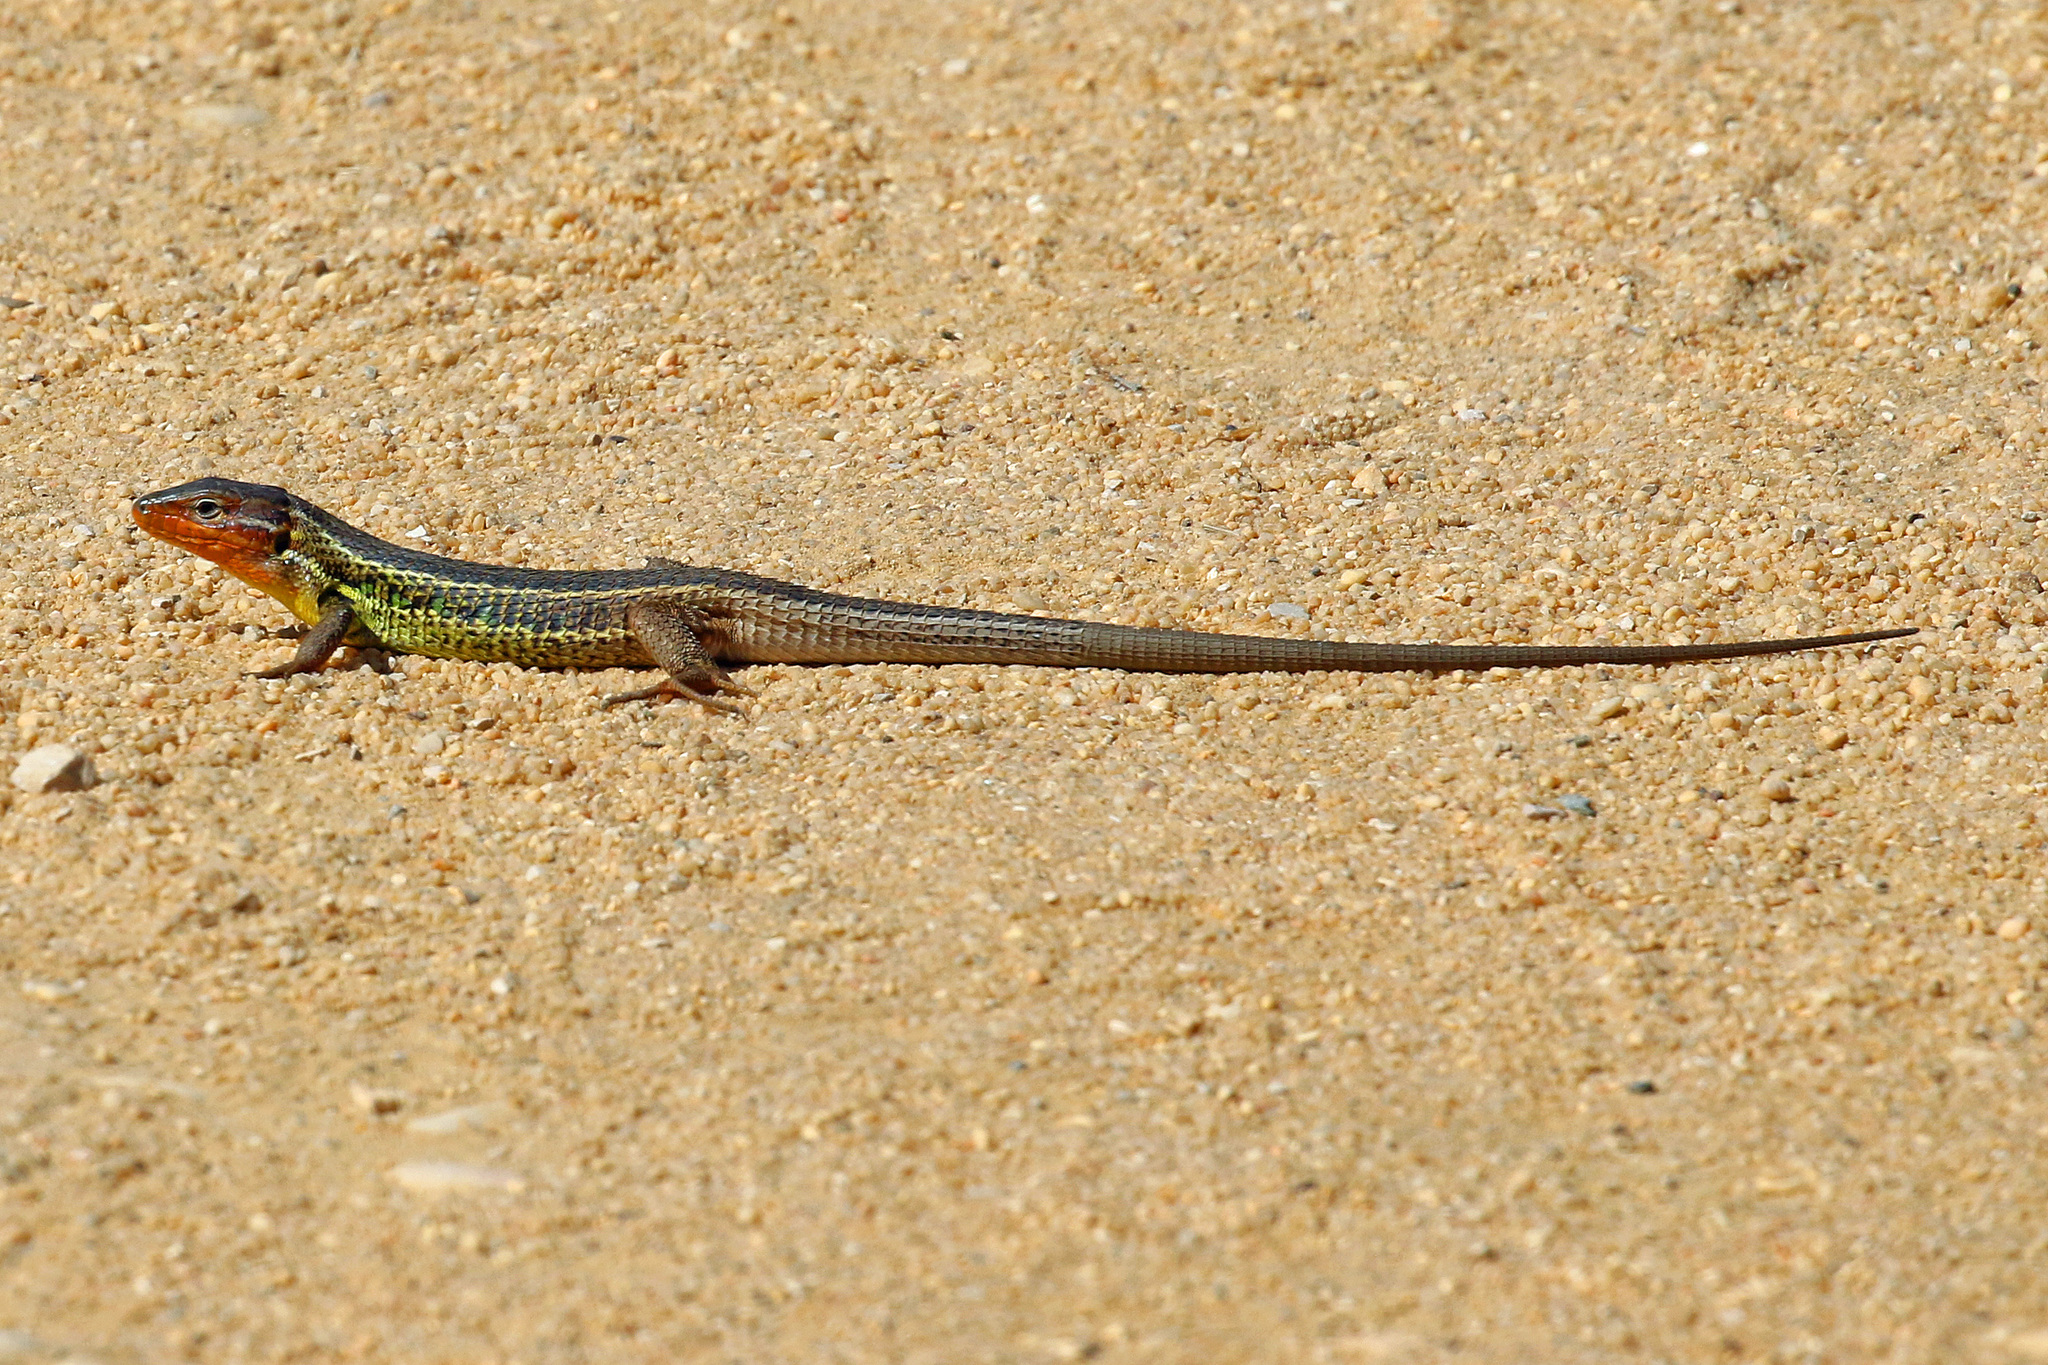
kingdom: Animalia
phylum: Chordata
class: Squamata
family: Lacertidae
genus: Psammodromus
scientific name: Psammodromus algirus
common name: Algerian psammodromus
